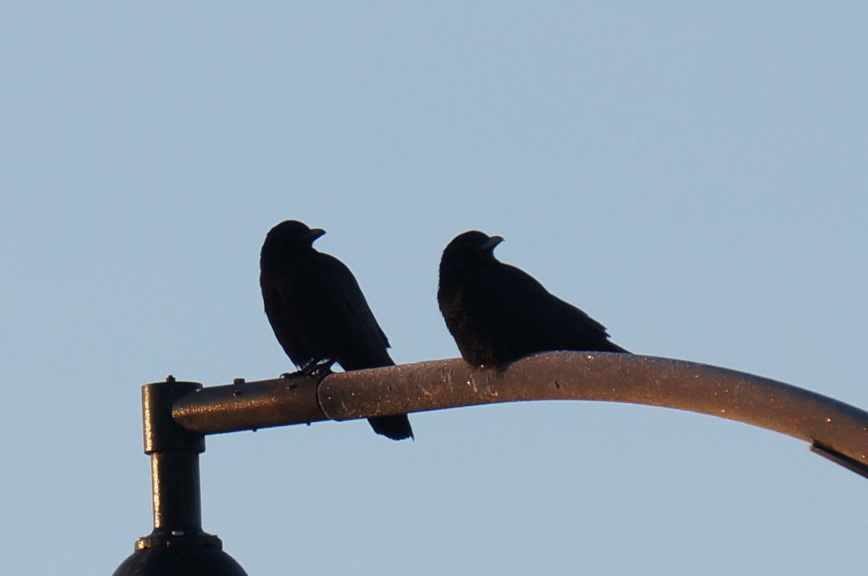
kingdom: Animalia
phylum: Chordata
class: Aves
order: Passeriformes
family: Corvidae
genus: Corvus
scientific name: Corvus brachyrhynchos
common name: American crow
